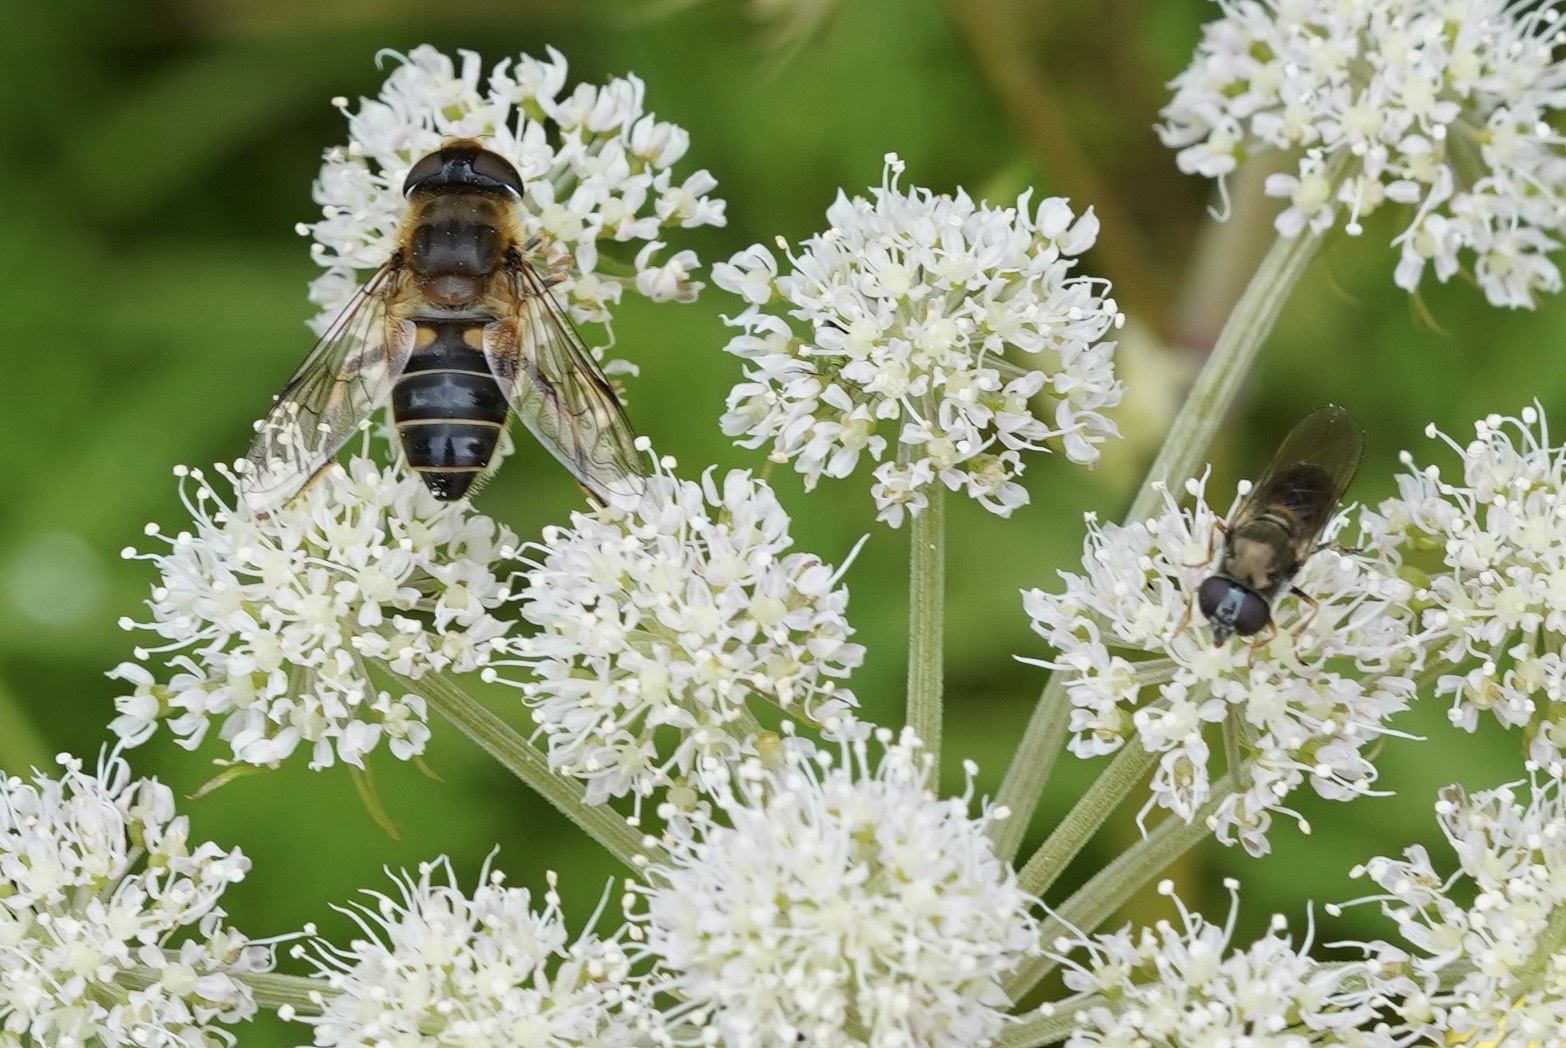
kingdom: Animalia
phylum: Arthropoda
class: Insecta
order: Diptera
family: Syrphidae
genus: Eristalis
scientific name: Eristalis pertinax
